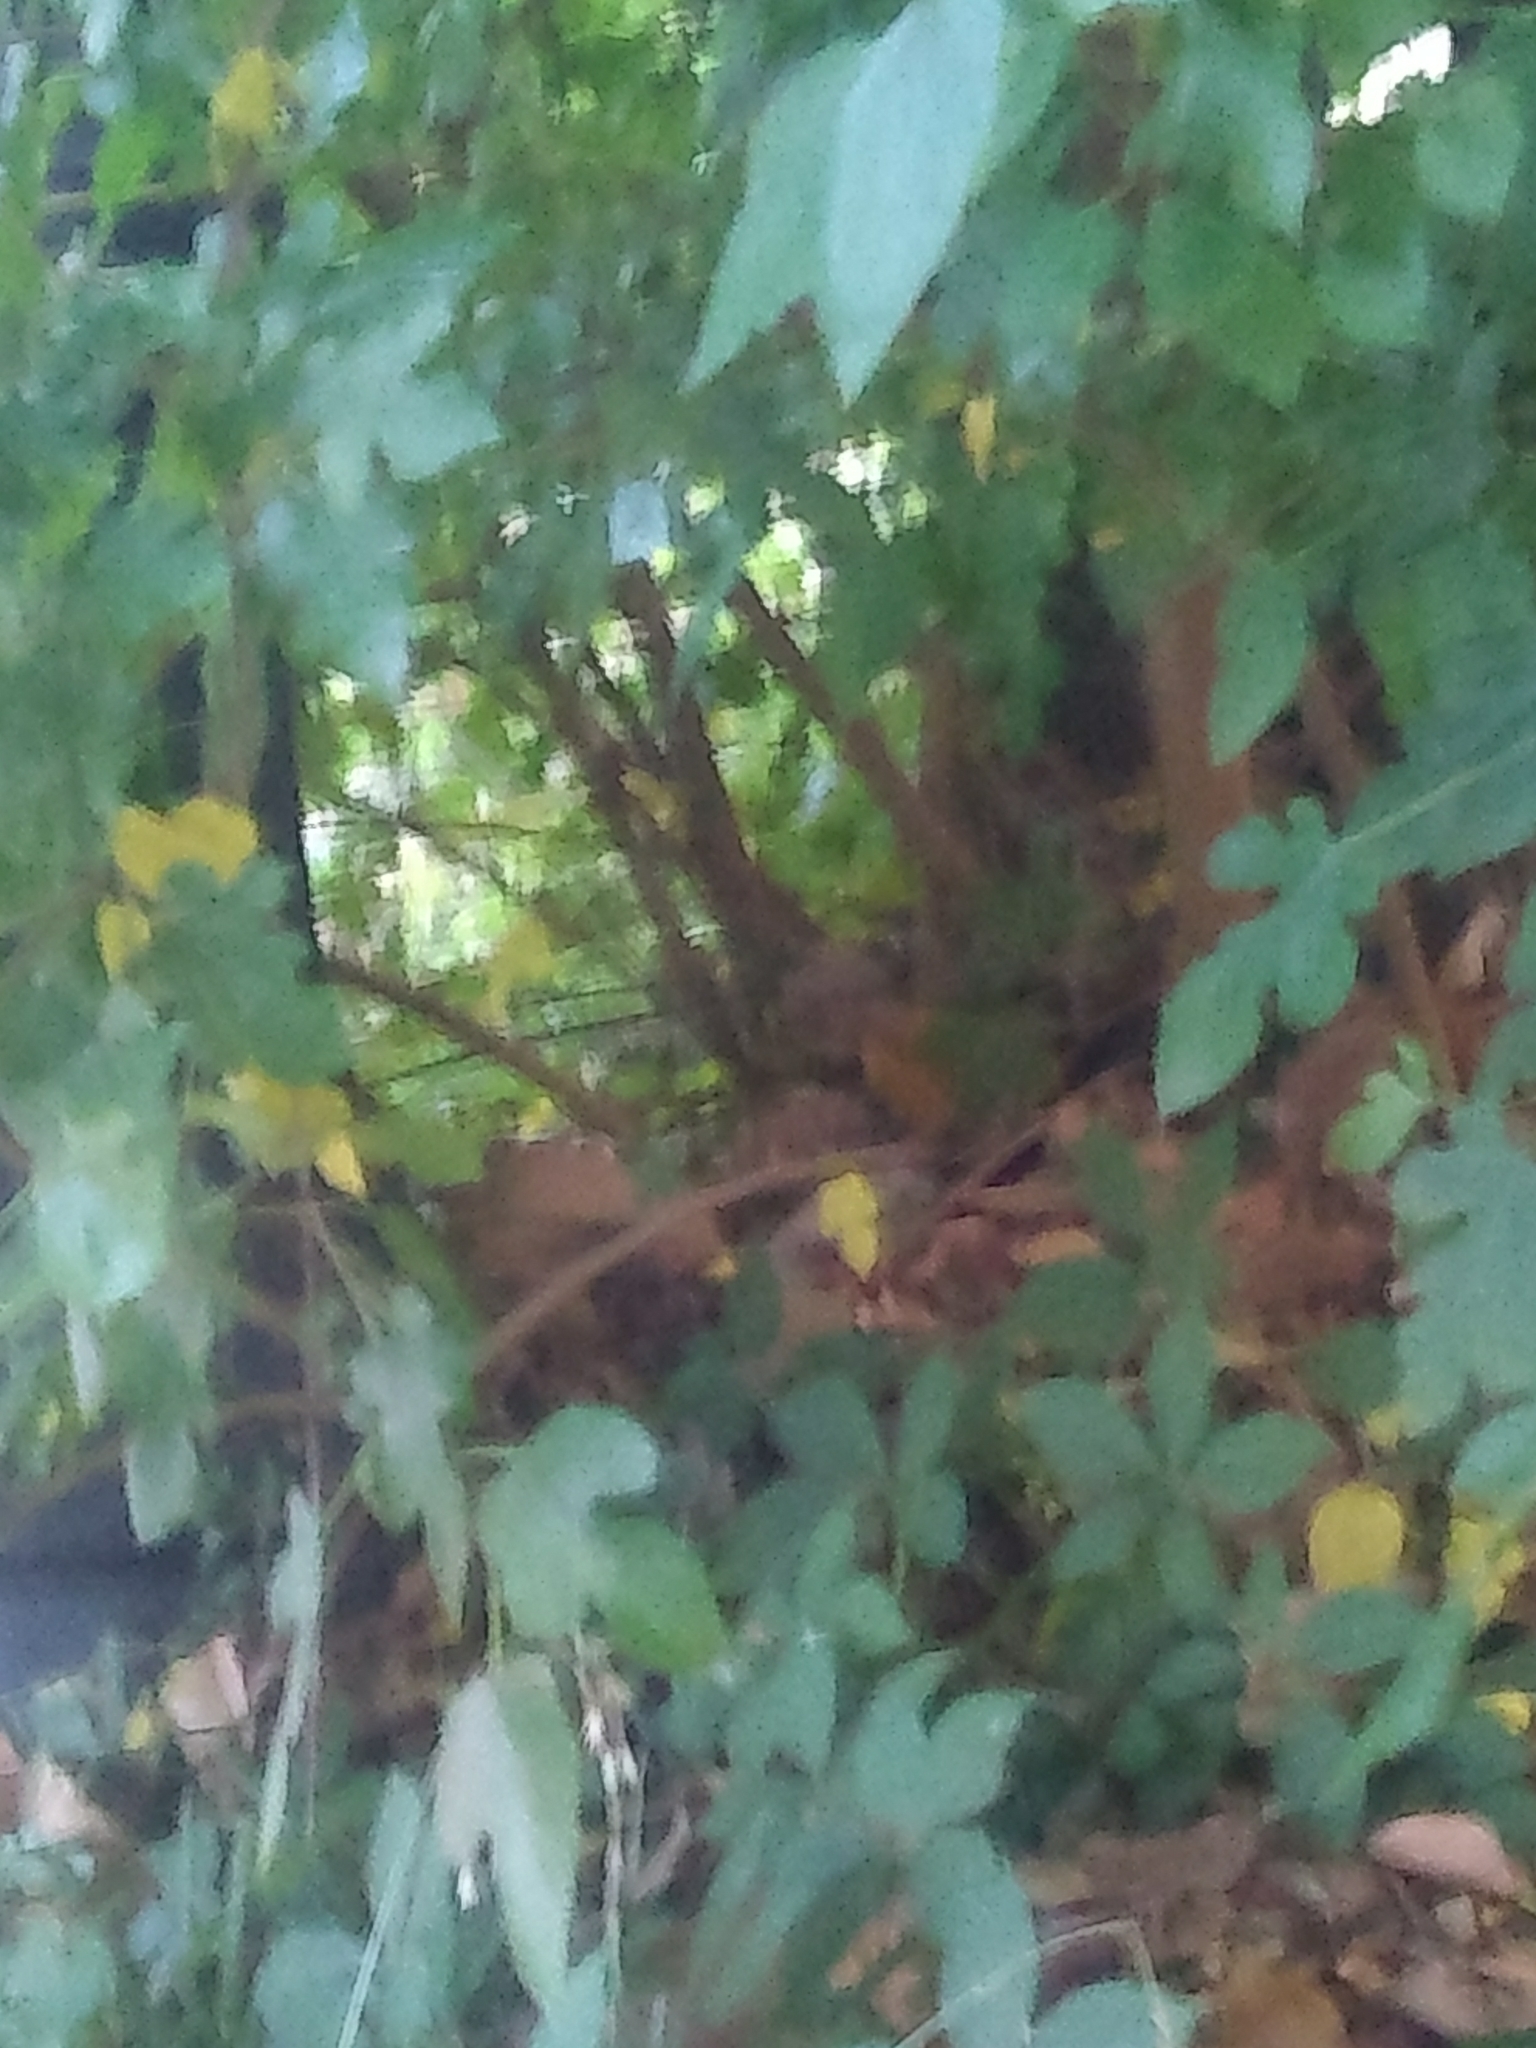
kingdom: Plantae
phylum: Tracheophyta
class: Magnoliopsida
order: Rosales
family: Moraceae
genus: Morus
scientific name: Morus alba
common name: White mulberry
